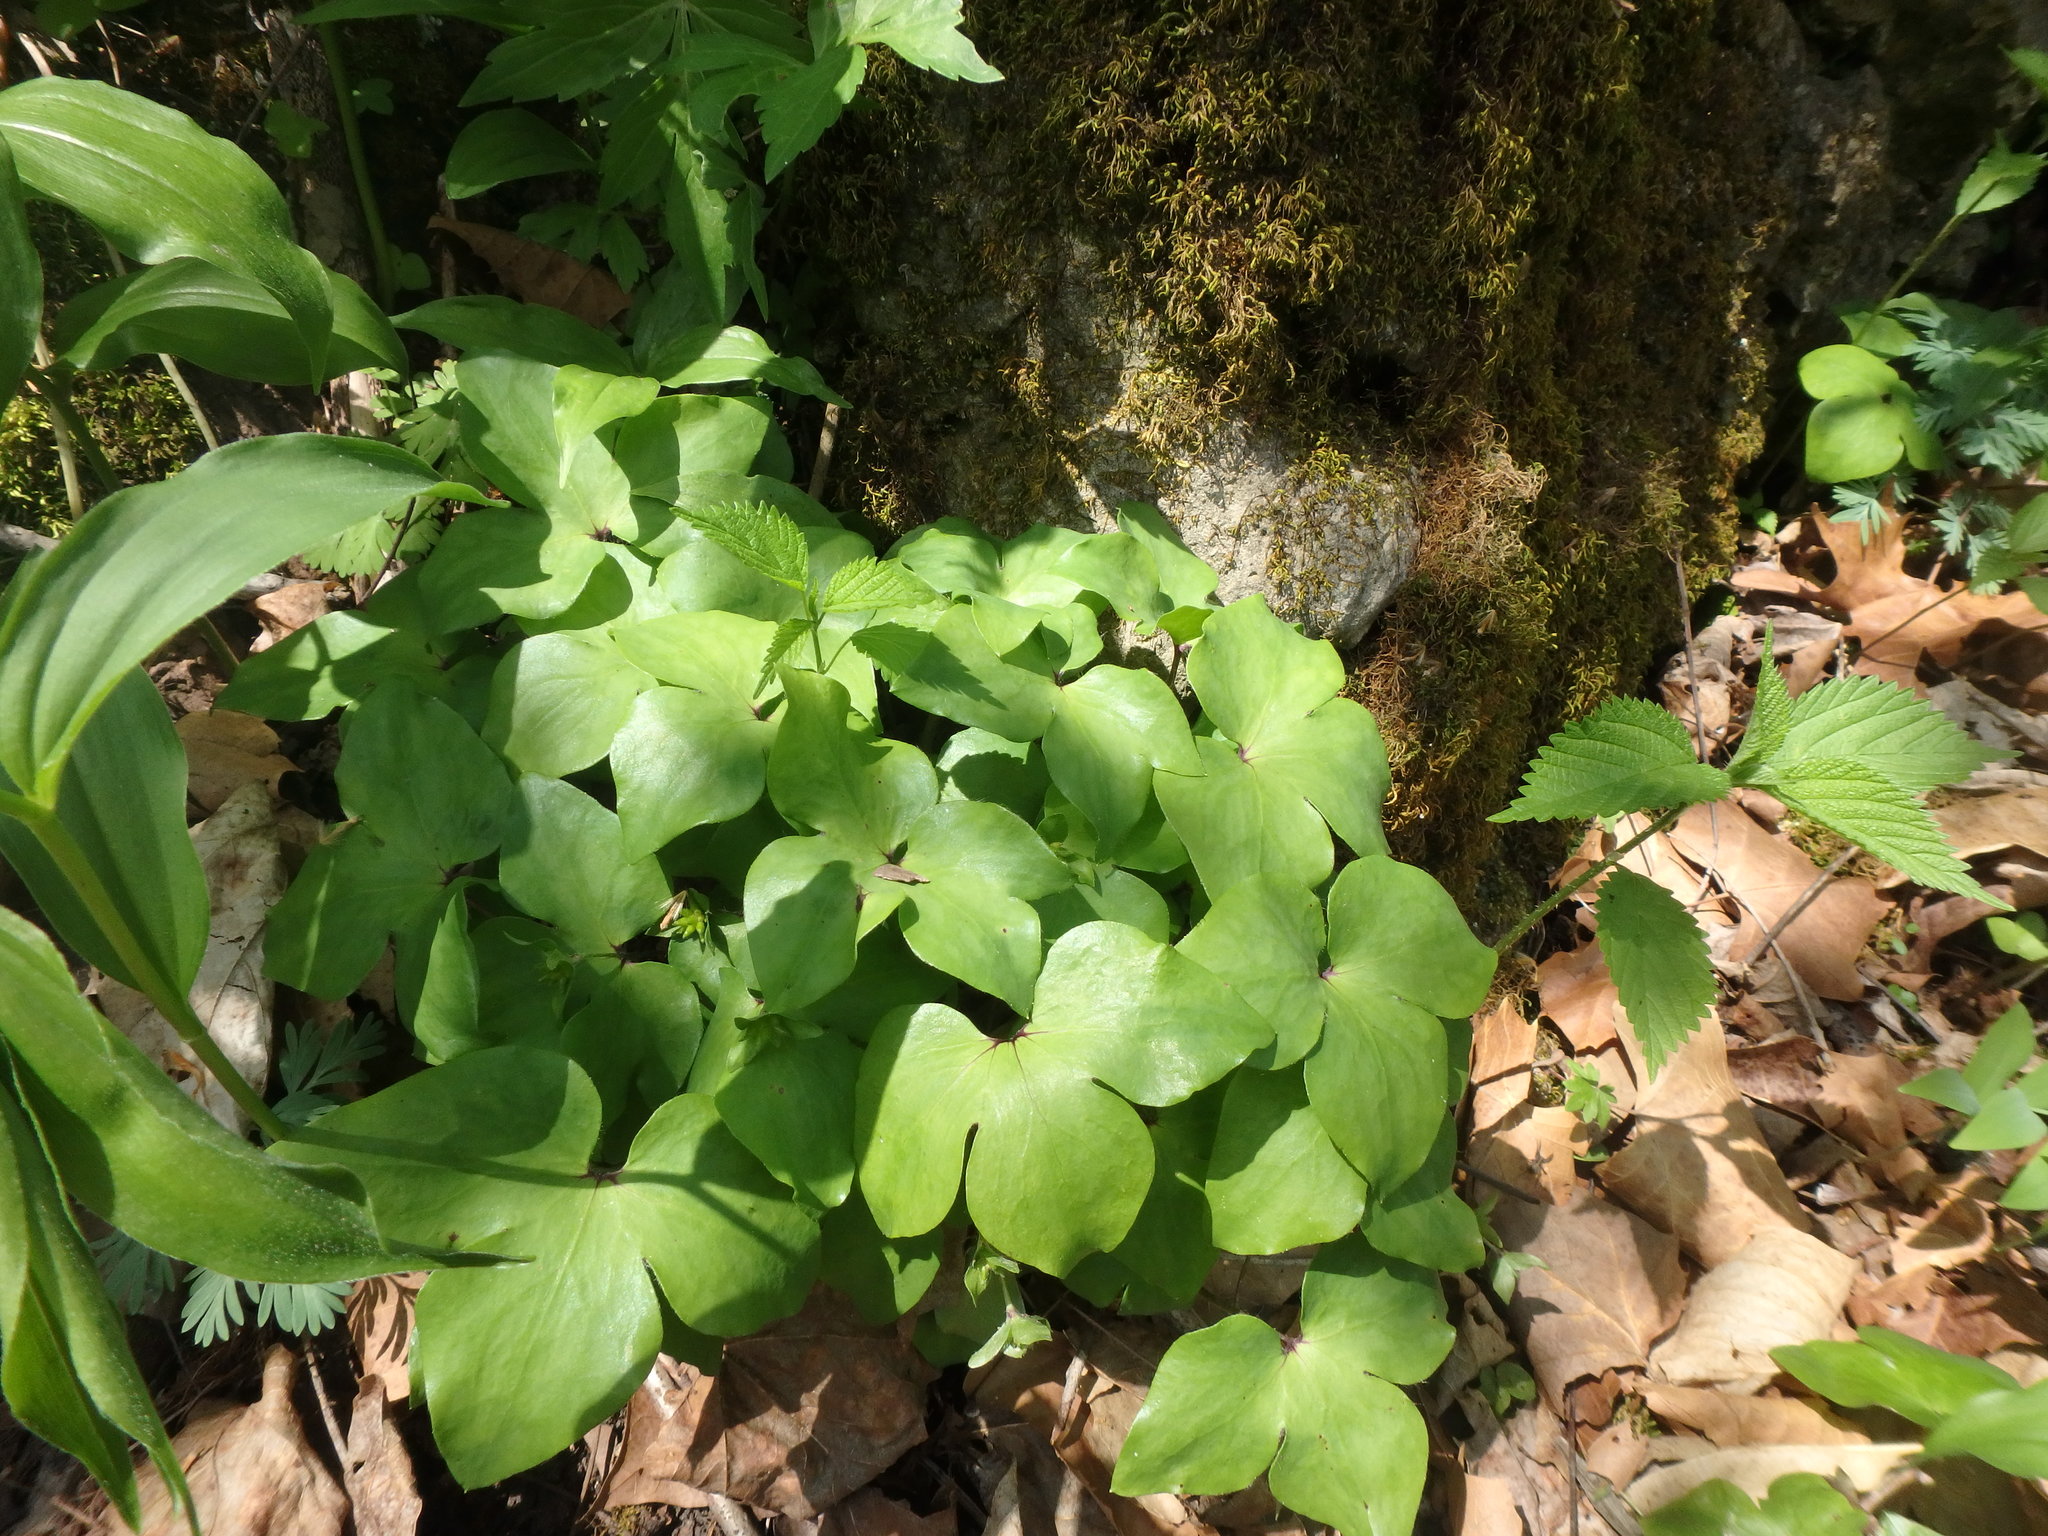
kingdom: Plantae
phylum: Tracheophyta
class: Magnoliopsida
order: Ranunculales
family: Ranunculaceae
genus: Hepatica
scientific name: Hepatica acutiloba
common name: Sharp-lobed hepatica
